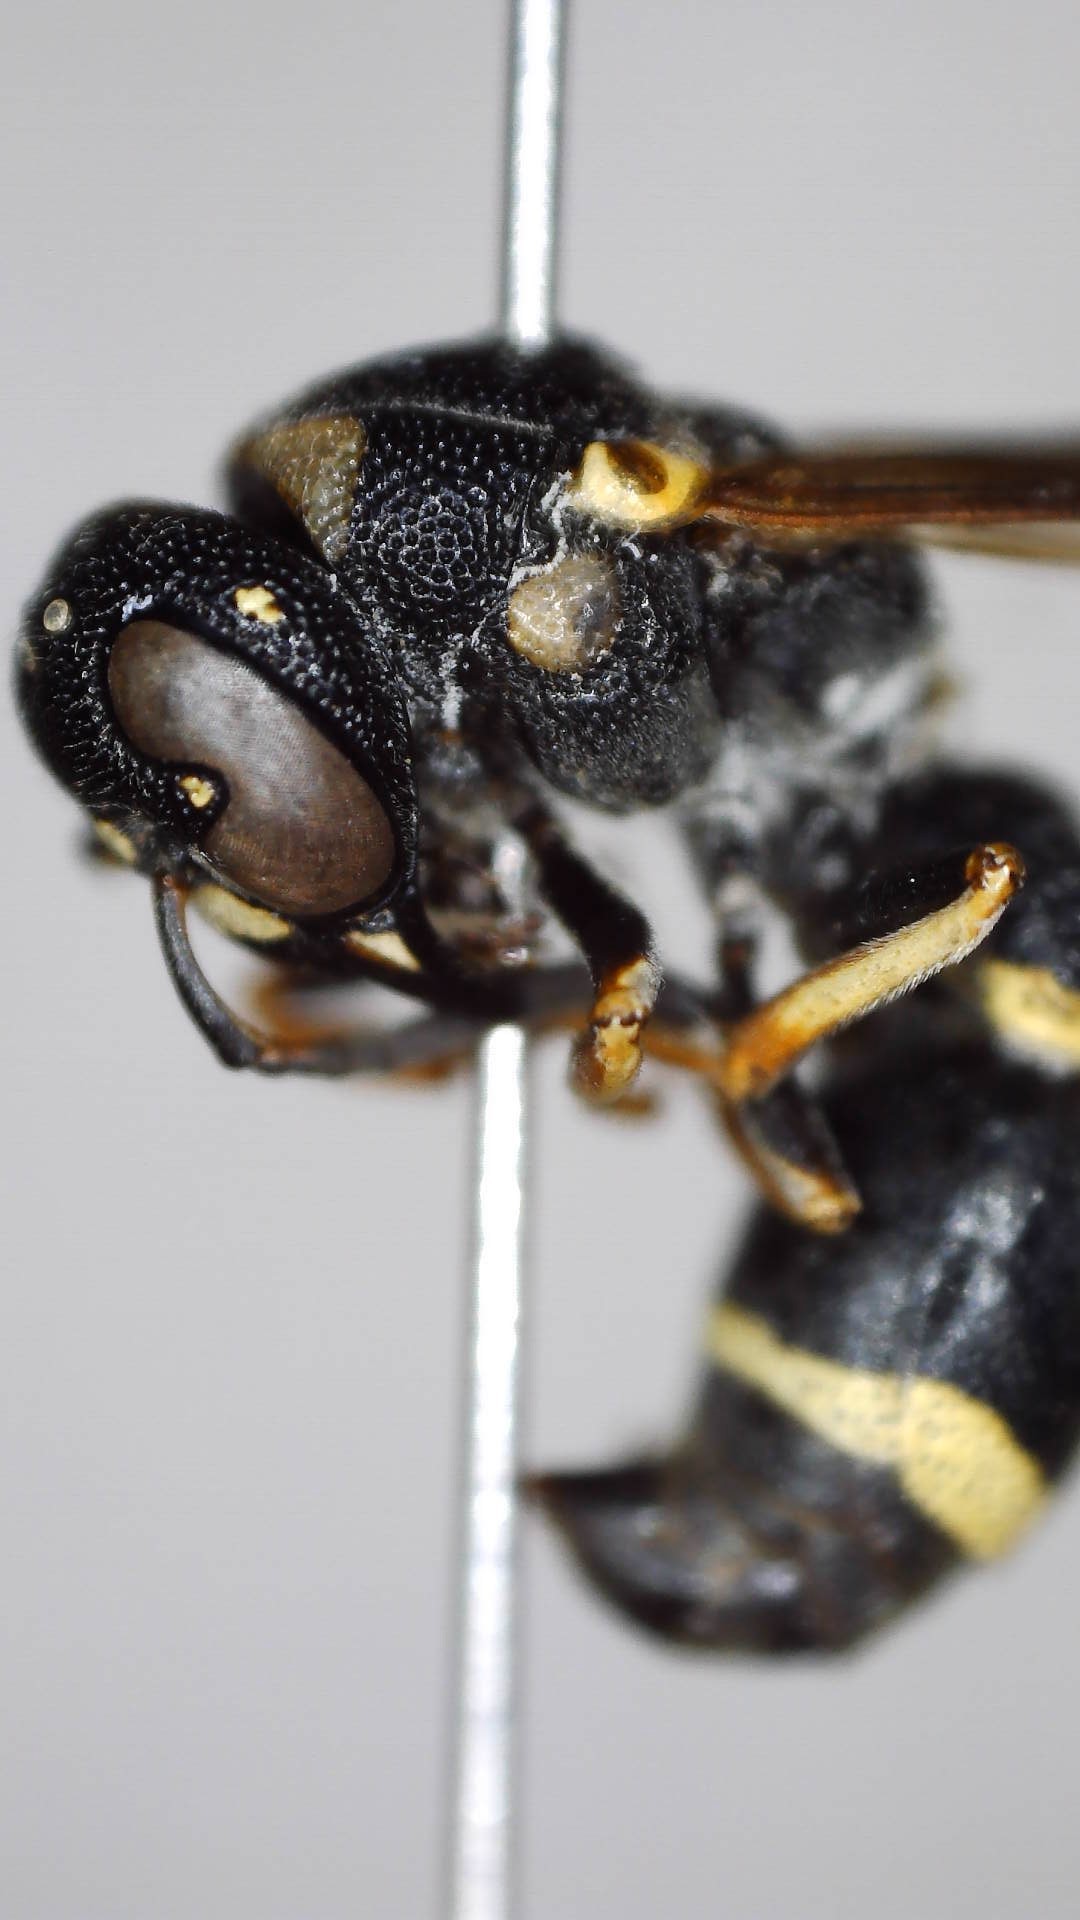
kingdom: Animalia
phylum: Arthropoda
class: Insecta
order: Hymenoptera
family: Eumenidae
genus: Parancistrocerus
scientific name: Parancistrocerus perennis
